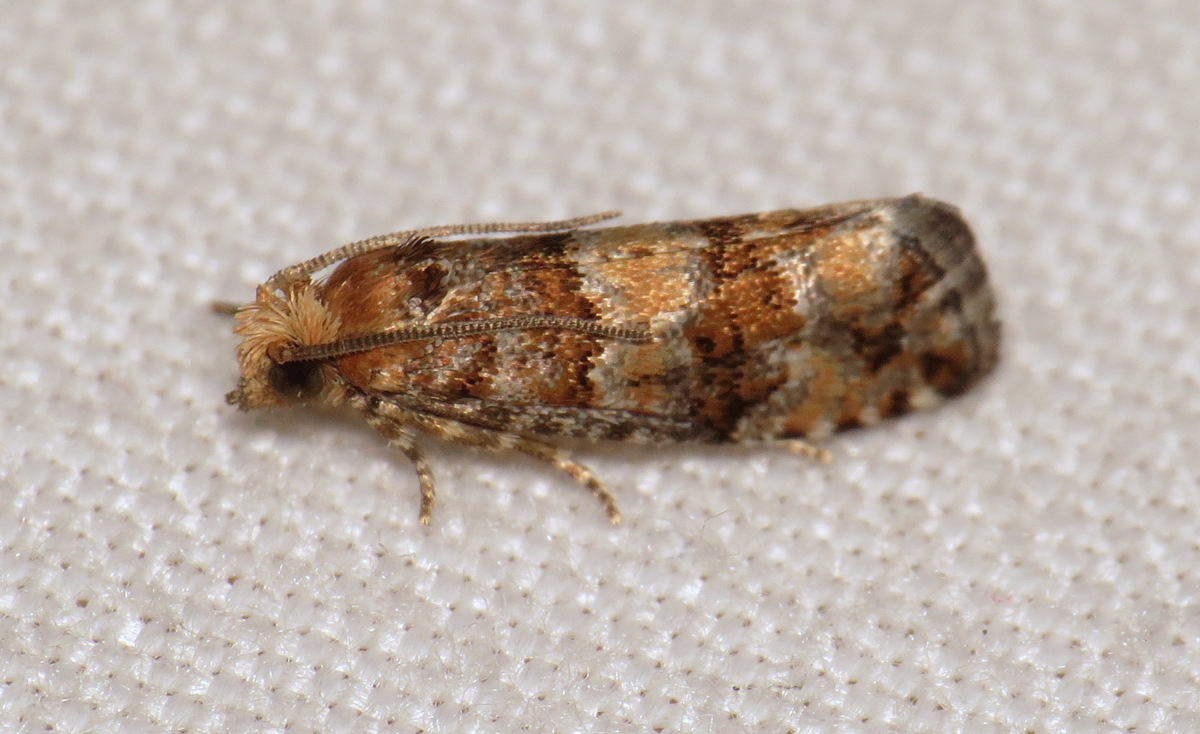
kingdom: Animalia
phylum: Arthropoda
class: Insecta
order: Lepidoptera
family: Tortricidae
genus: Eucopina
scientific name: Eucopina tocullionana
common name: White pinecone borer moth
